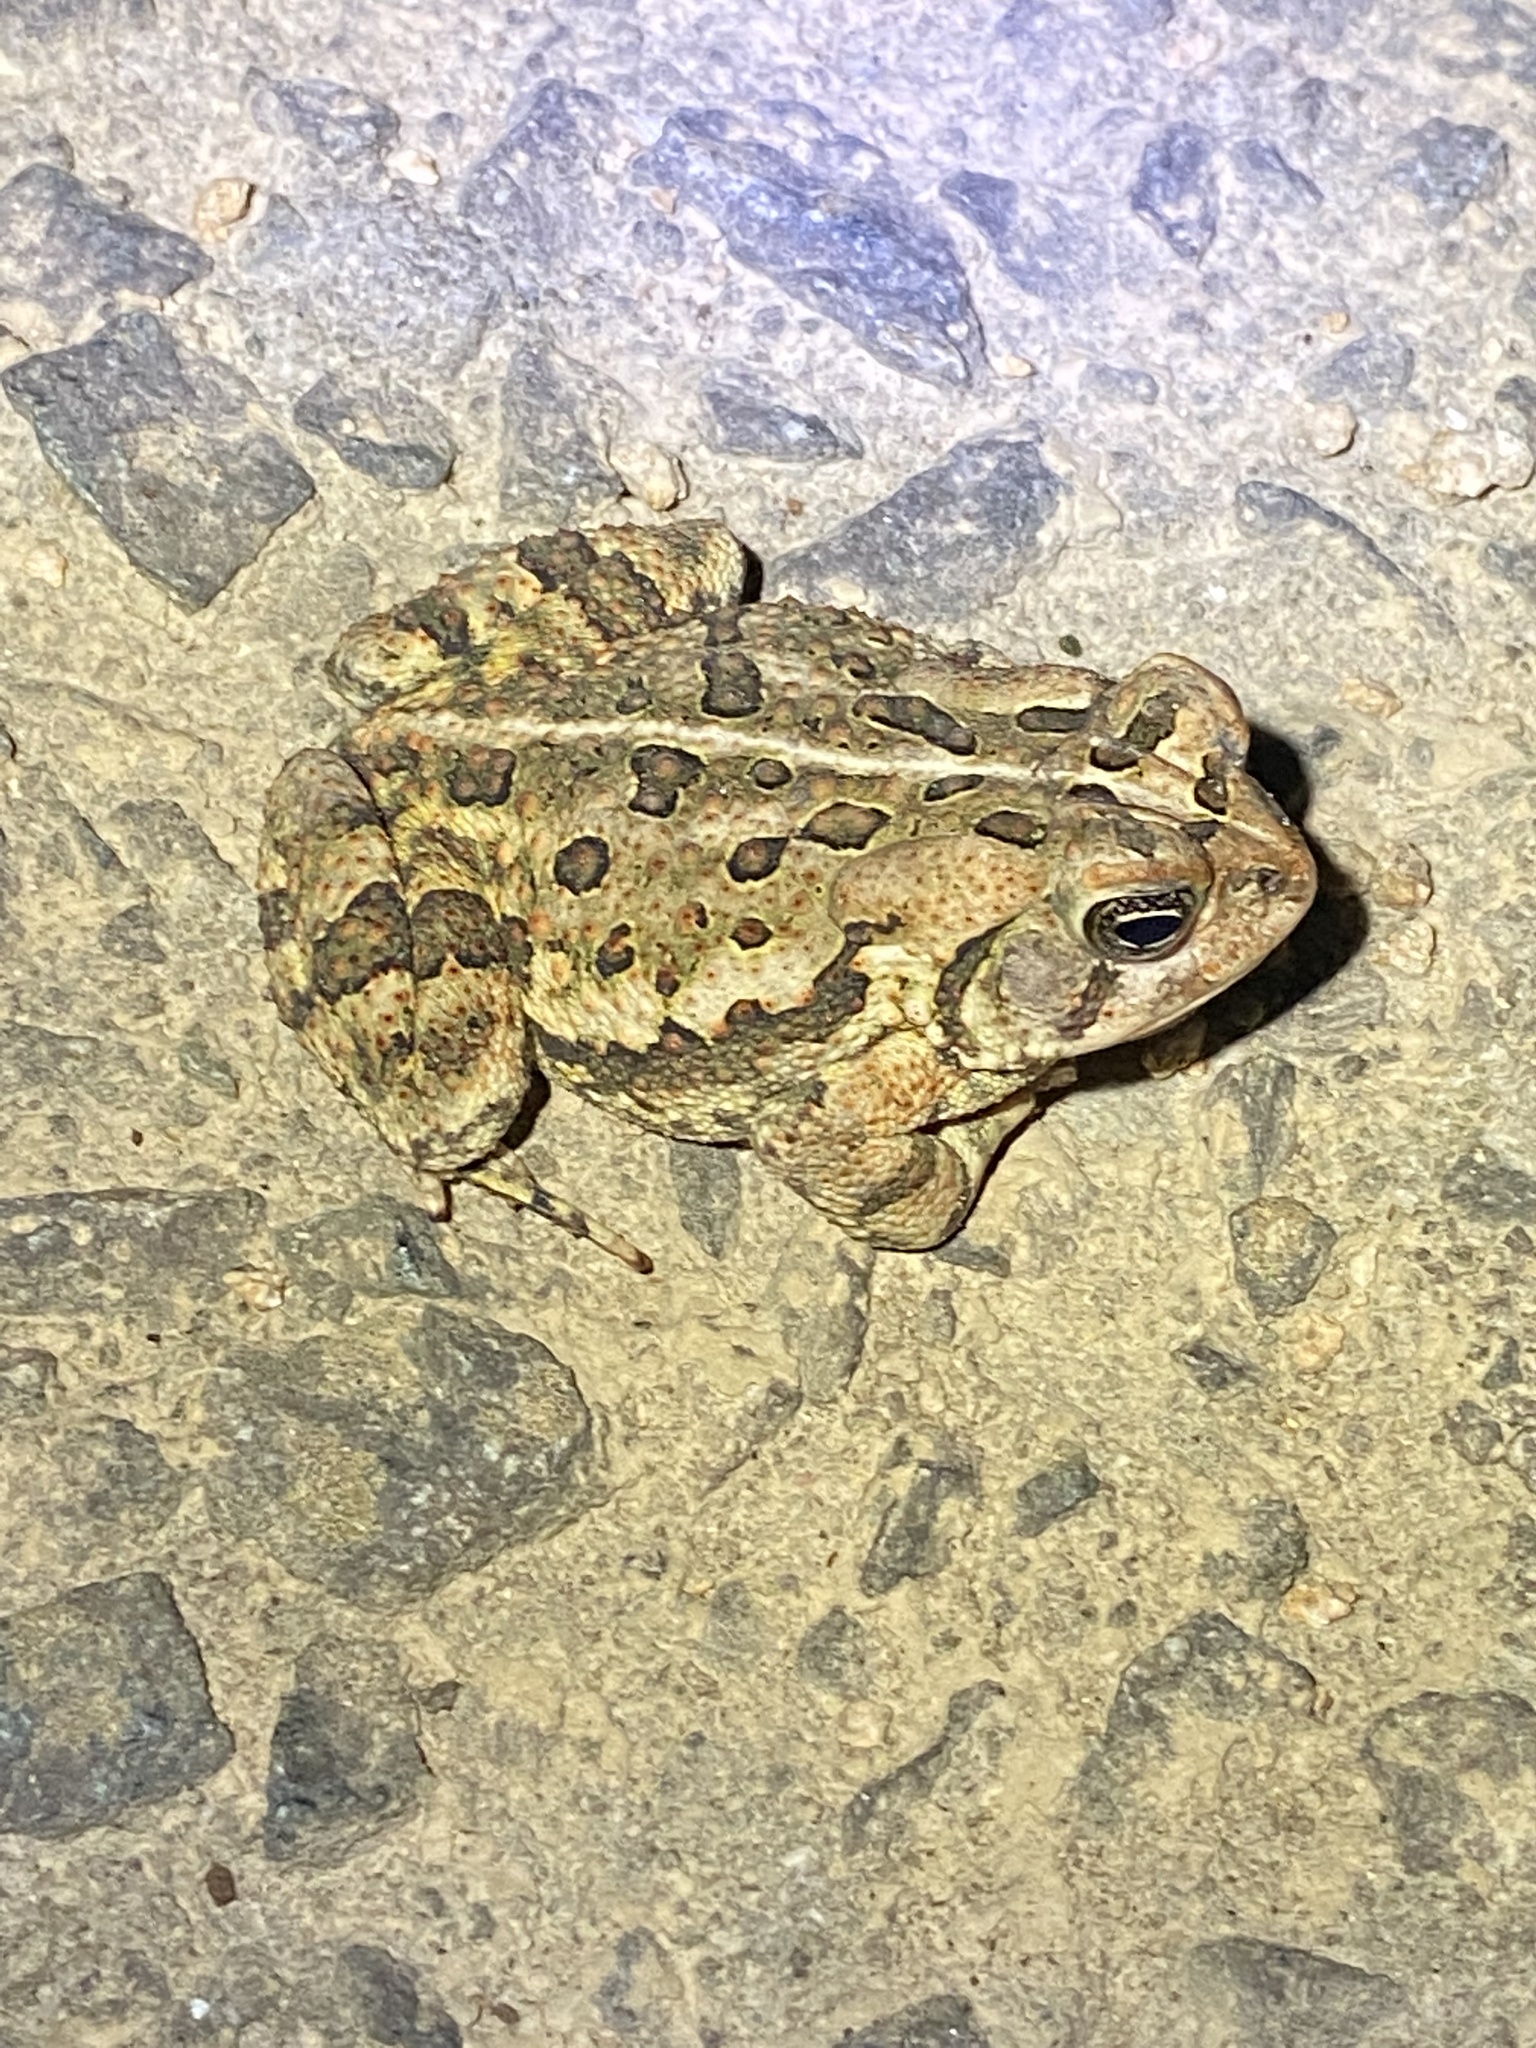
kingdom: Animalia
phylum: Chordata
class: Amphibia
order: Anura
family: Bufonidae
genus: Anaxyrus
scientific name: Anaxyrus fowleri
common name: Fowler's toad
